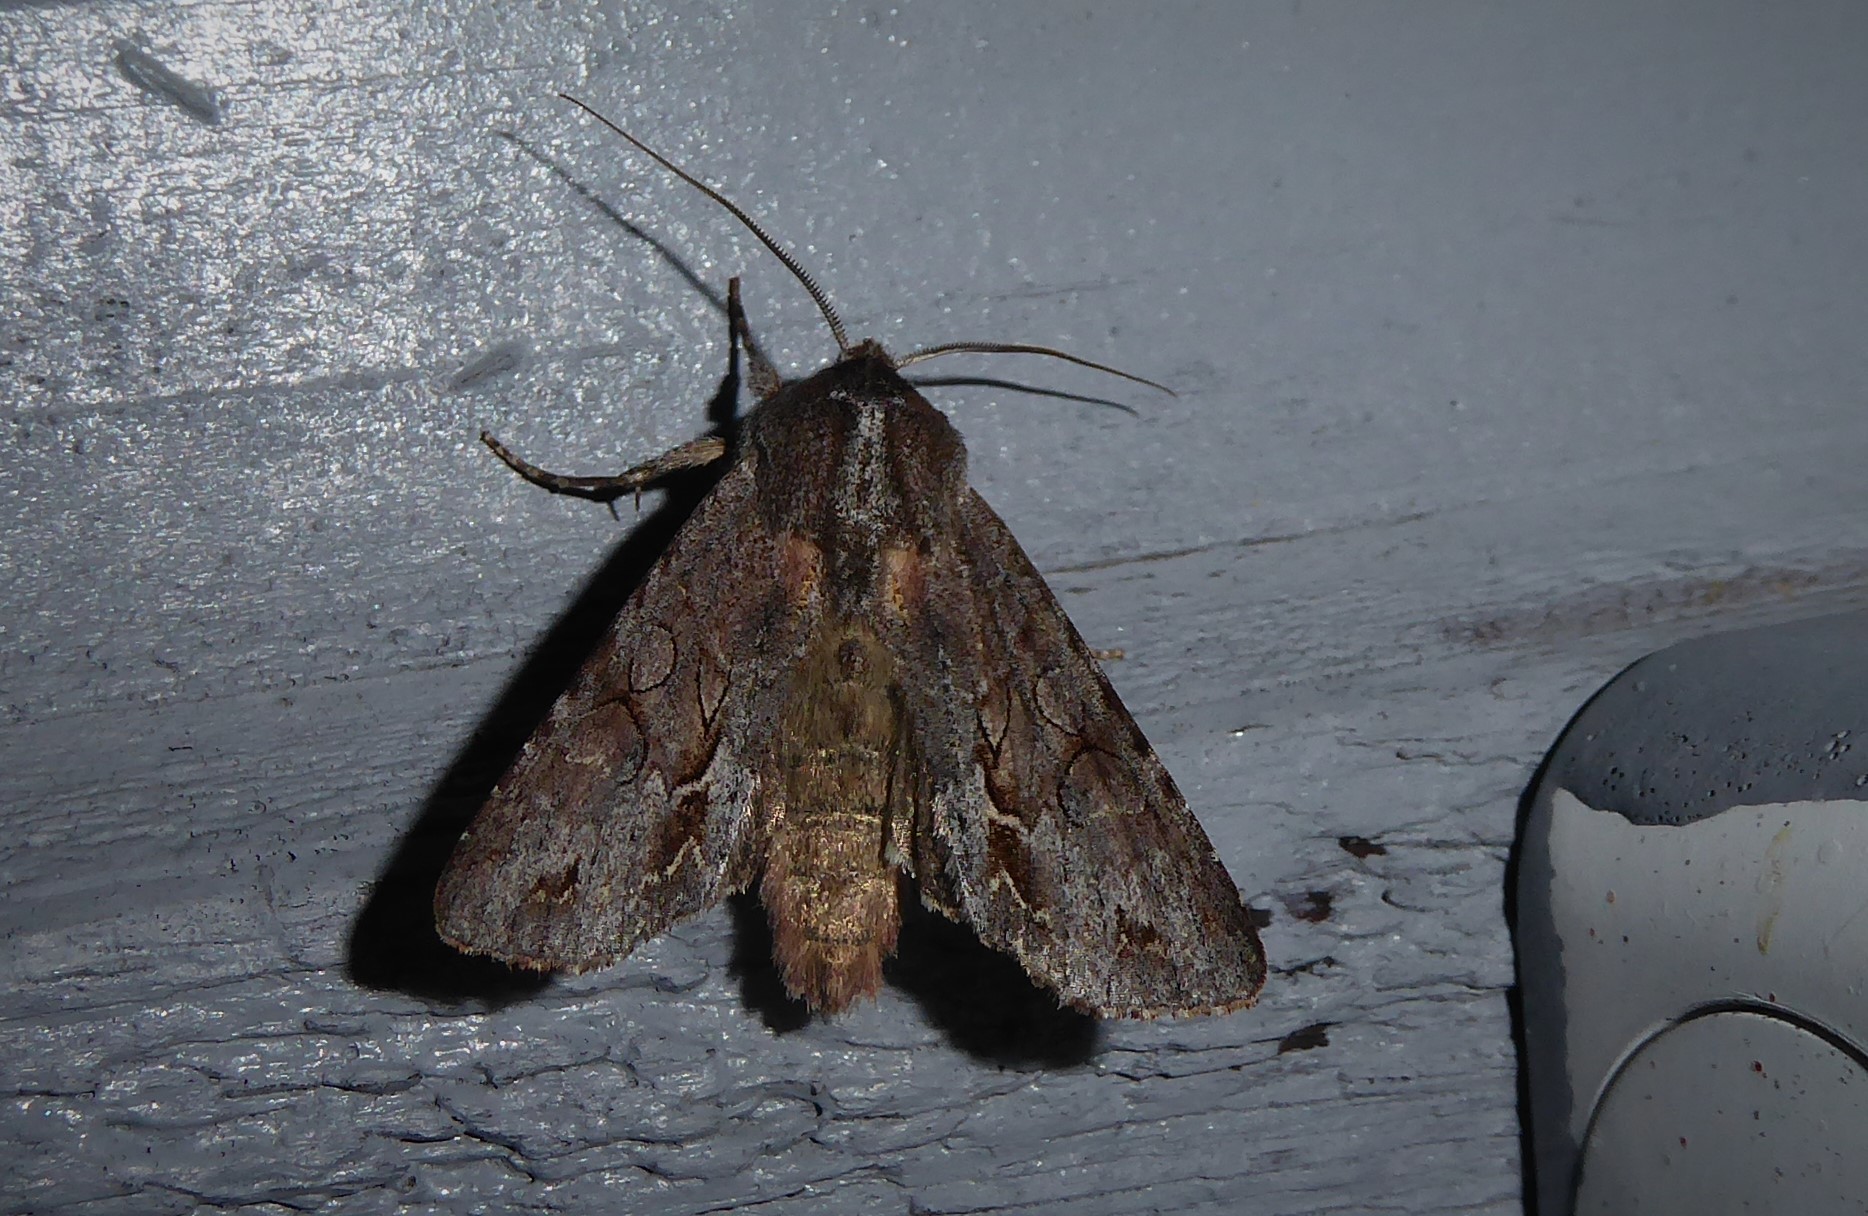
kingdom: Animalia
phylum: Arthropoda
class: Insecta
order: Lepidoptera
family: Noctuidae
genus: Ichneutica
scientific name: Ichneutica
